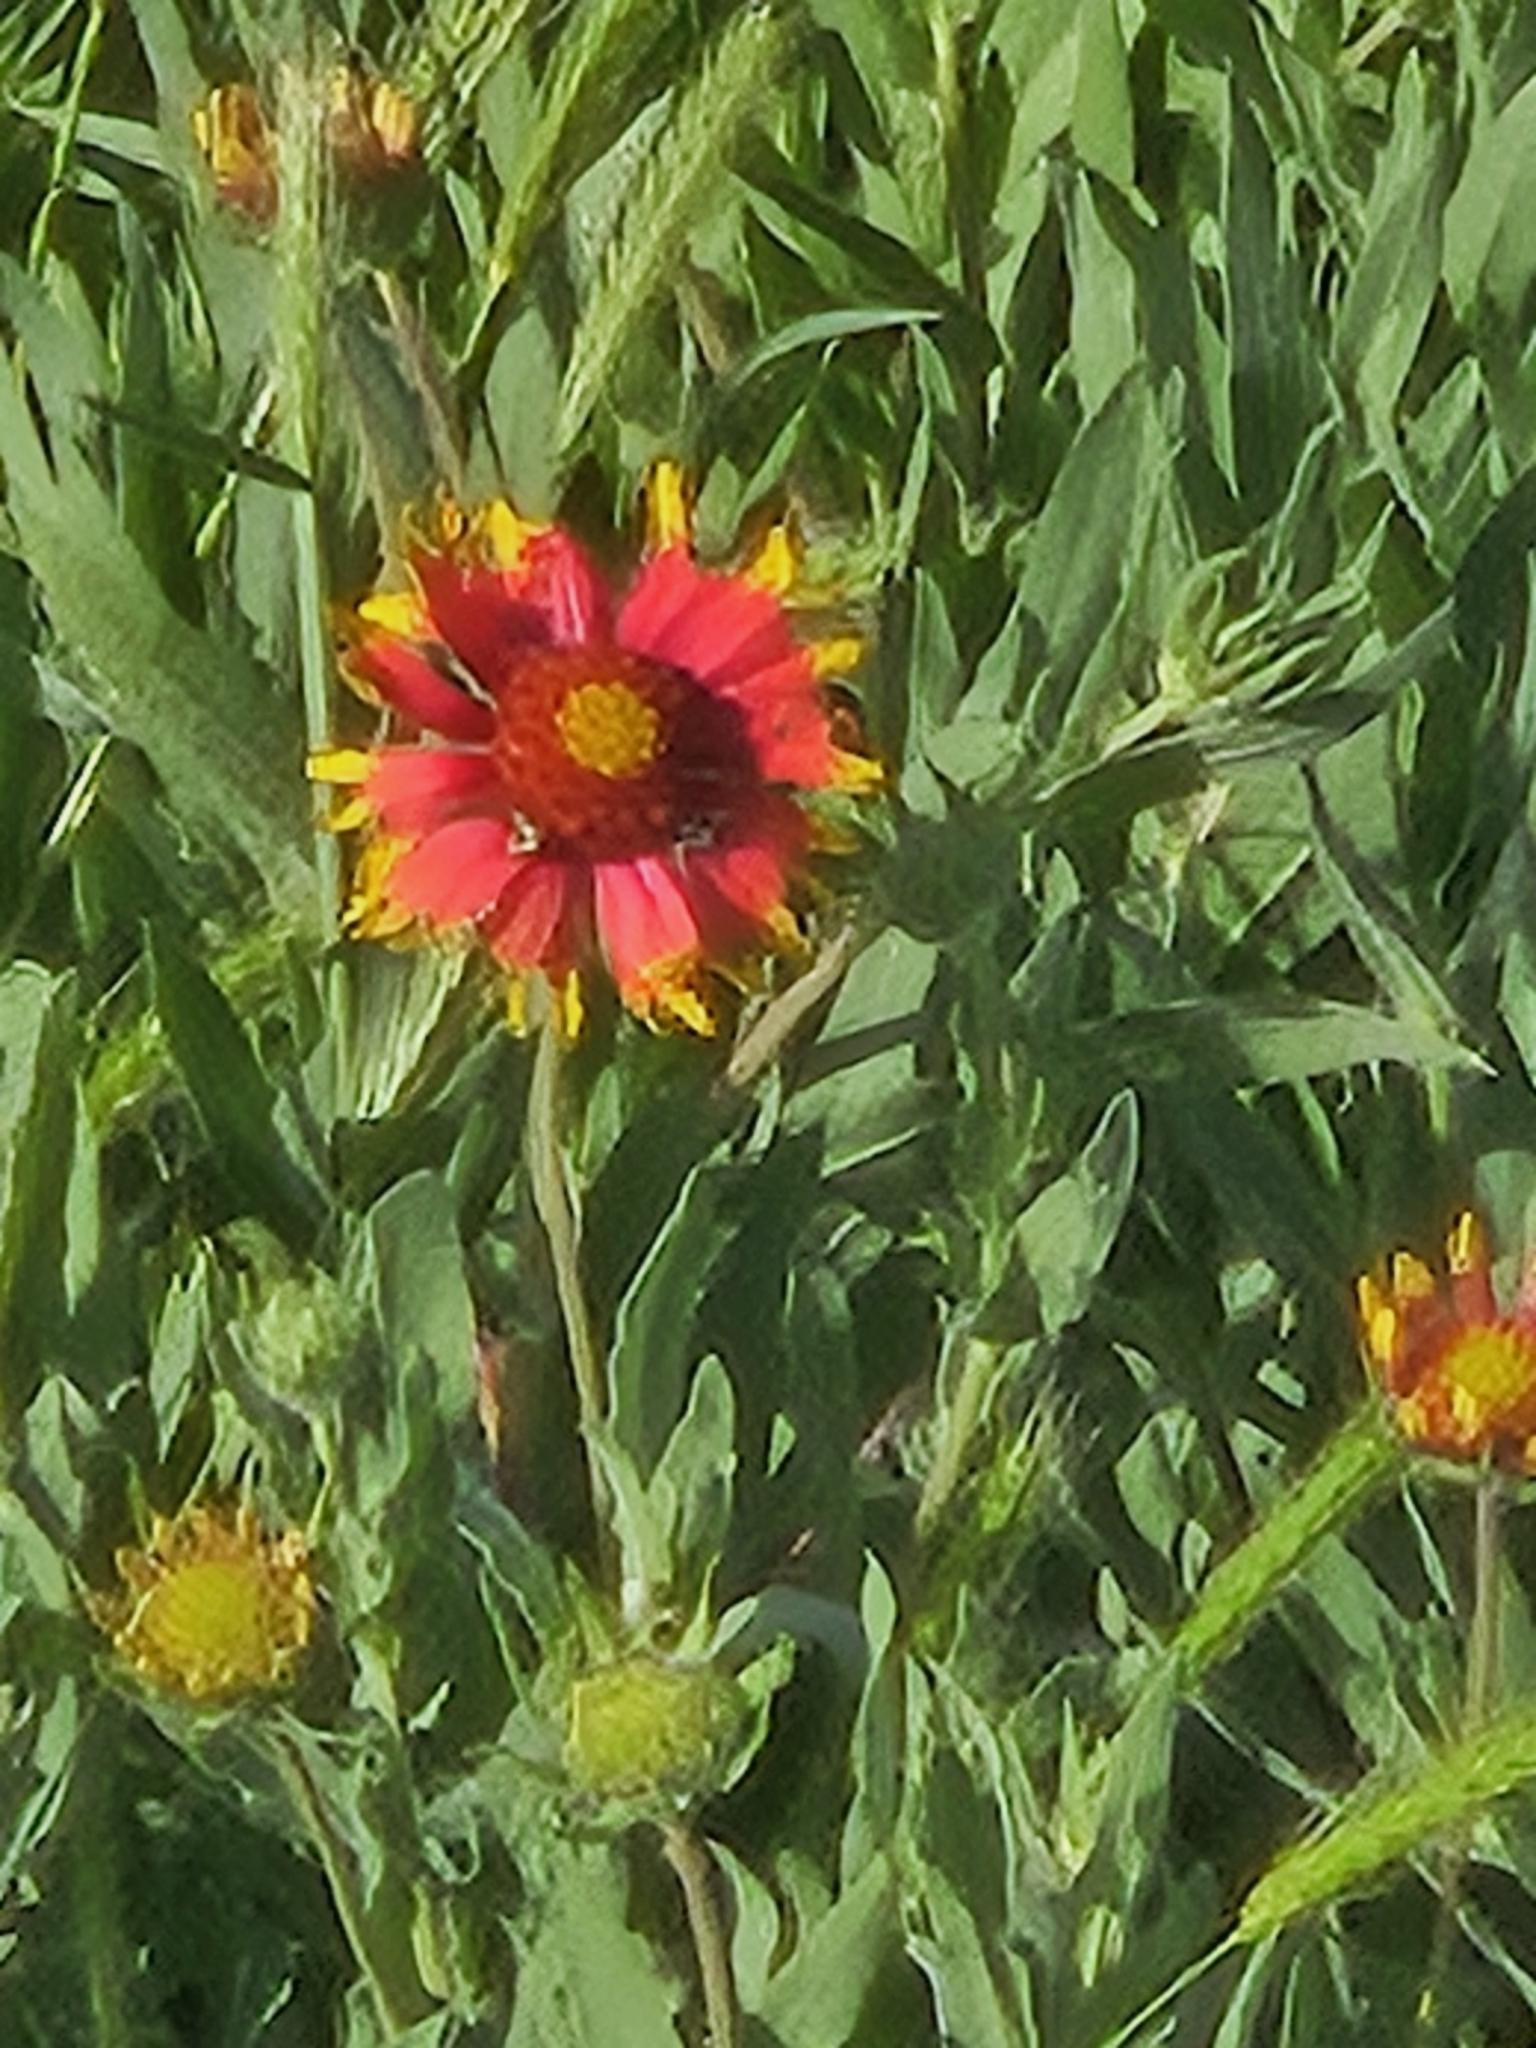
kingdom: Plantae
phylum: Tracheophyta
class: Magnoliopsida
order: Asterales
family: Asteraceae
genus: Gaillardia
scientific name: Gaillardia pulchella
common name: Firewheel
